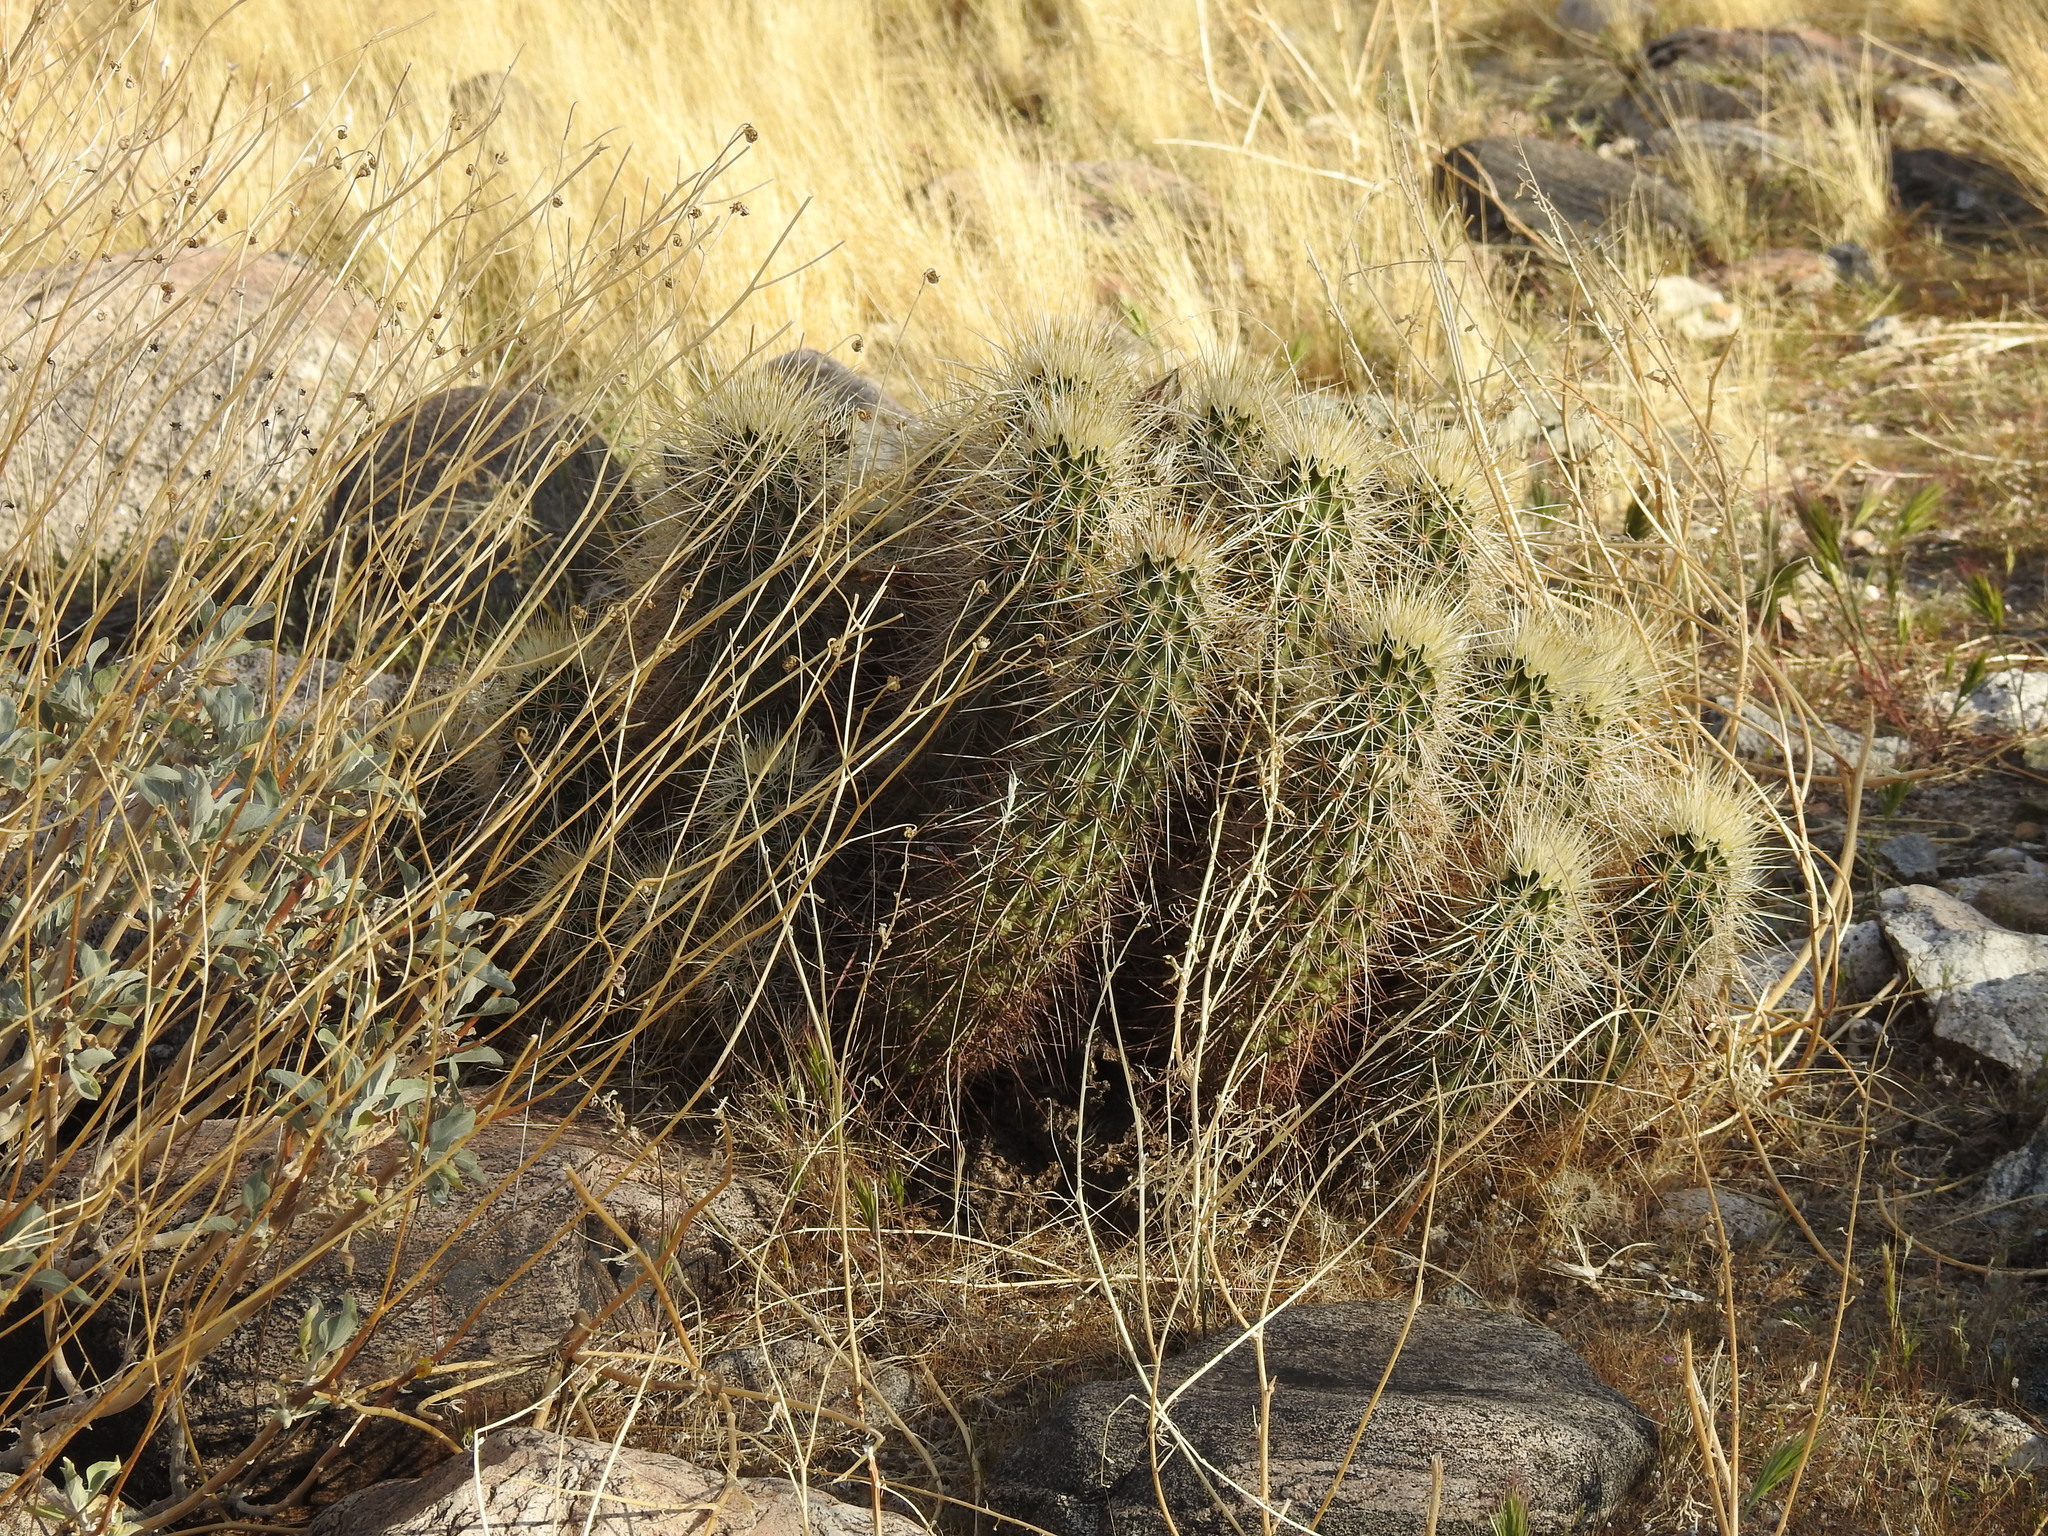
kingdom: Plantae
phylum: Tracheophyta
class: Magnoliopsida
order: Caryophyllales
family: Cactaceae
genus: Echinocereus
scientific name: Echinocereus engelmannii
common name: Engelmann's hedgehog cactus
